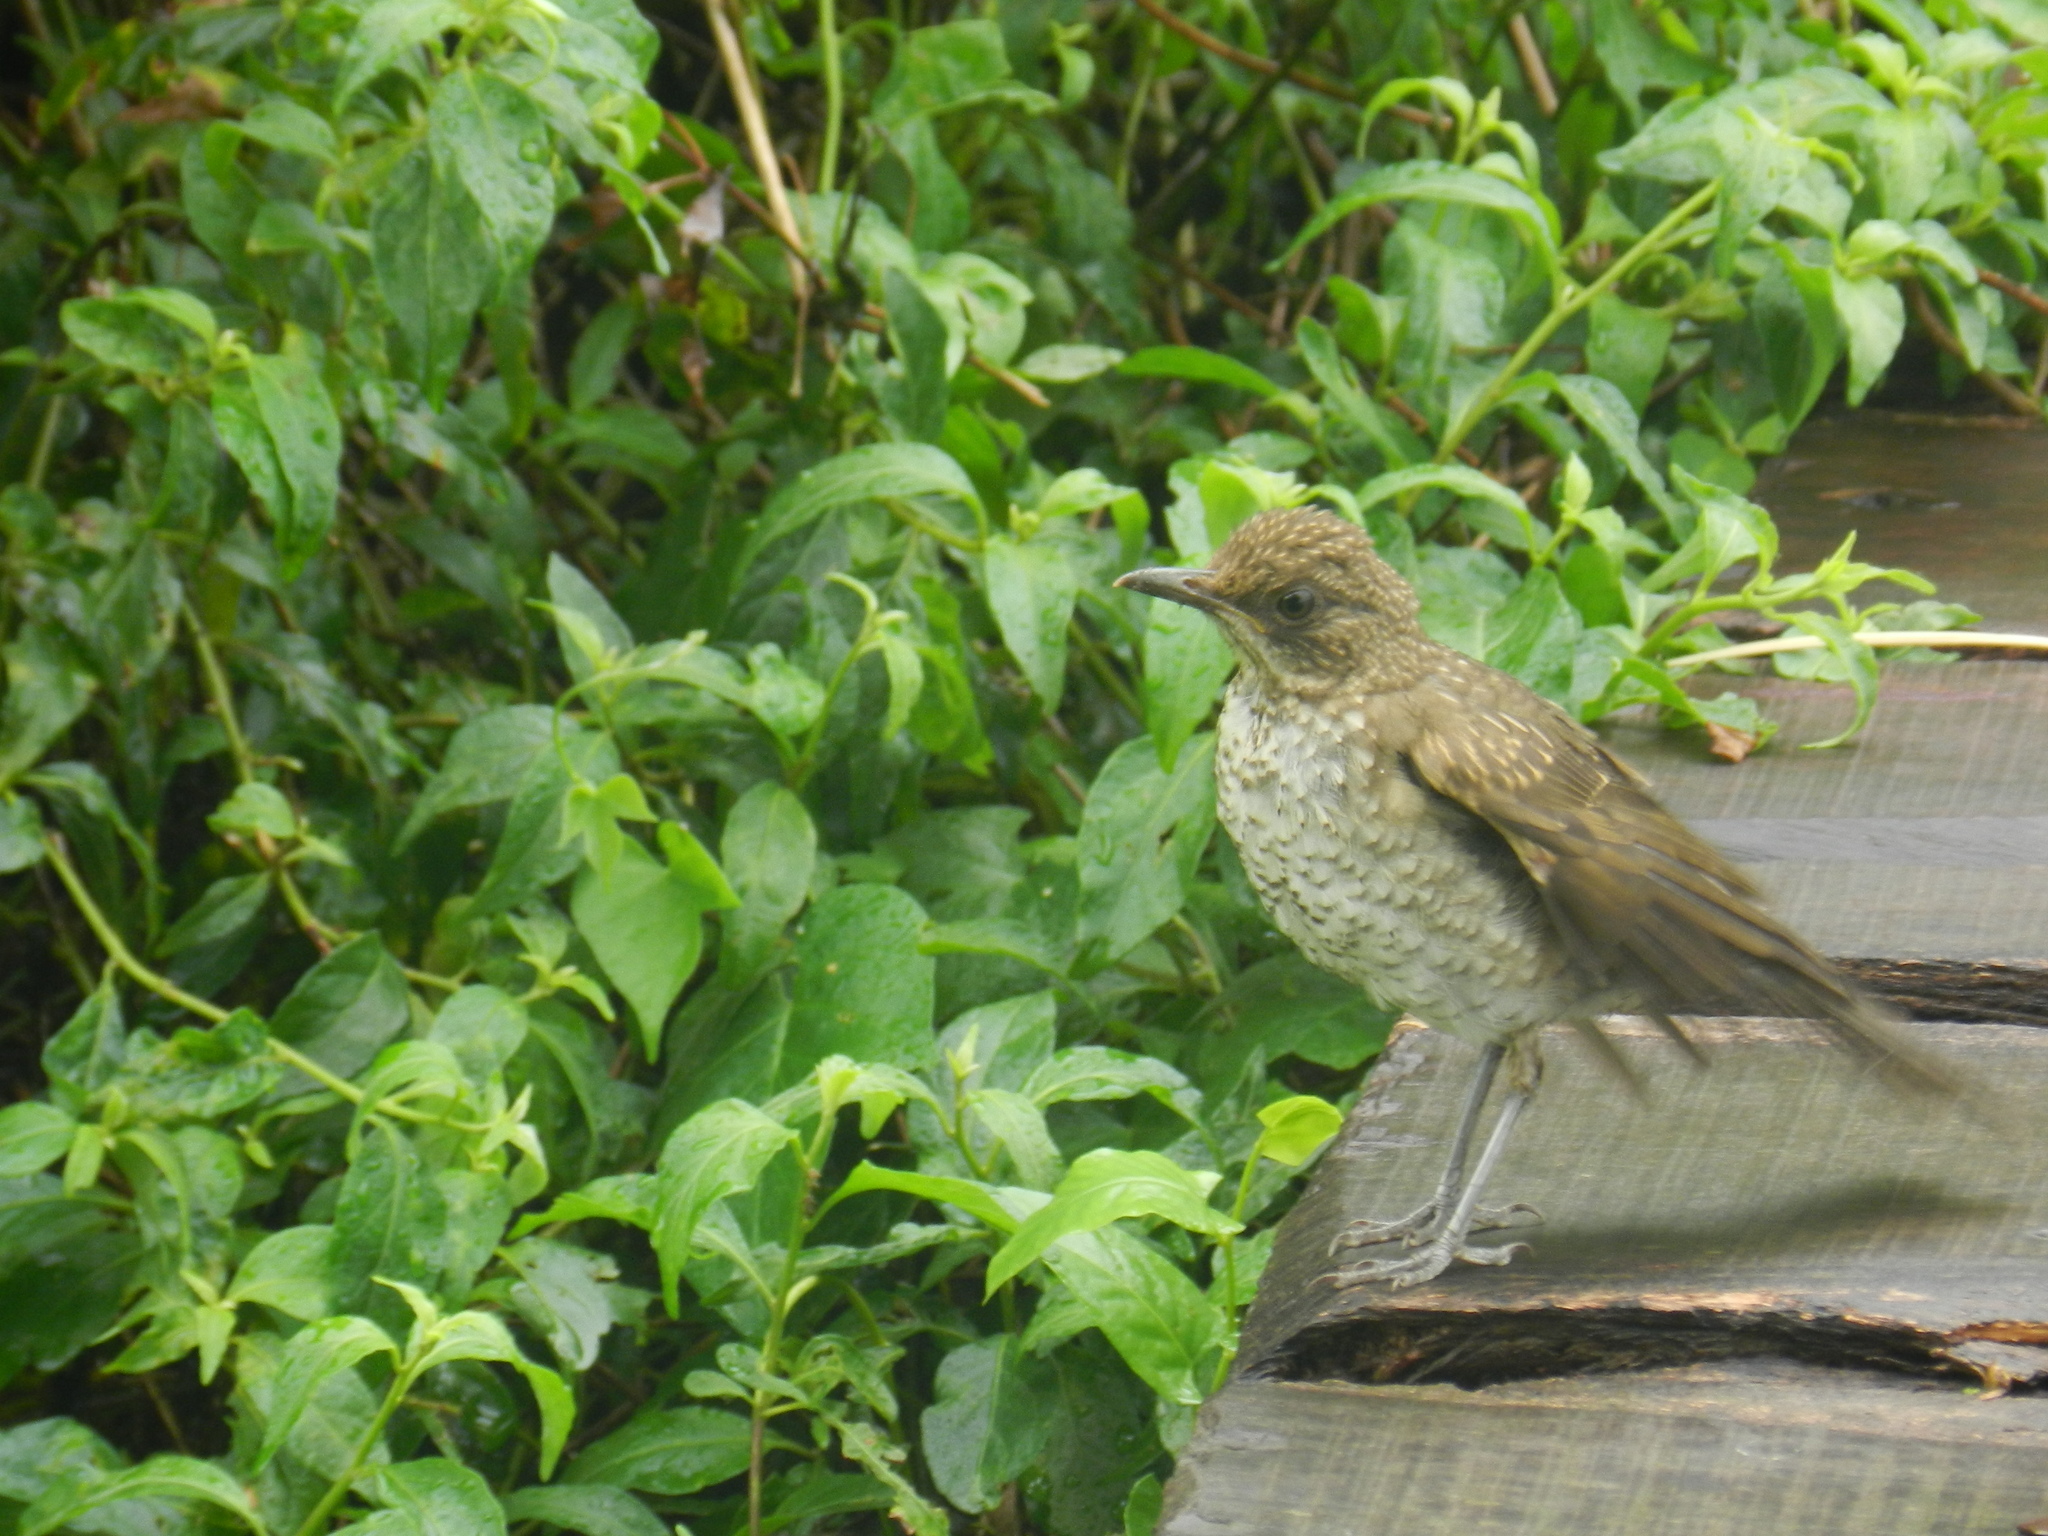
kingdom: Animalia
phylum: Chordata
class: Aves
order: Passeriformes
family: Turdidae
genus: Turdus
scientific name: Turdus amaurochalinus
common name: Creamy-bellied thrush
